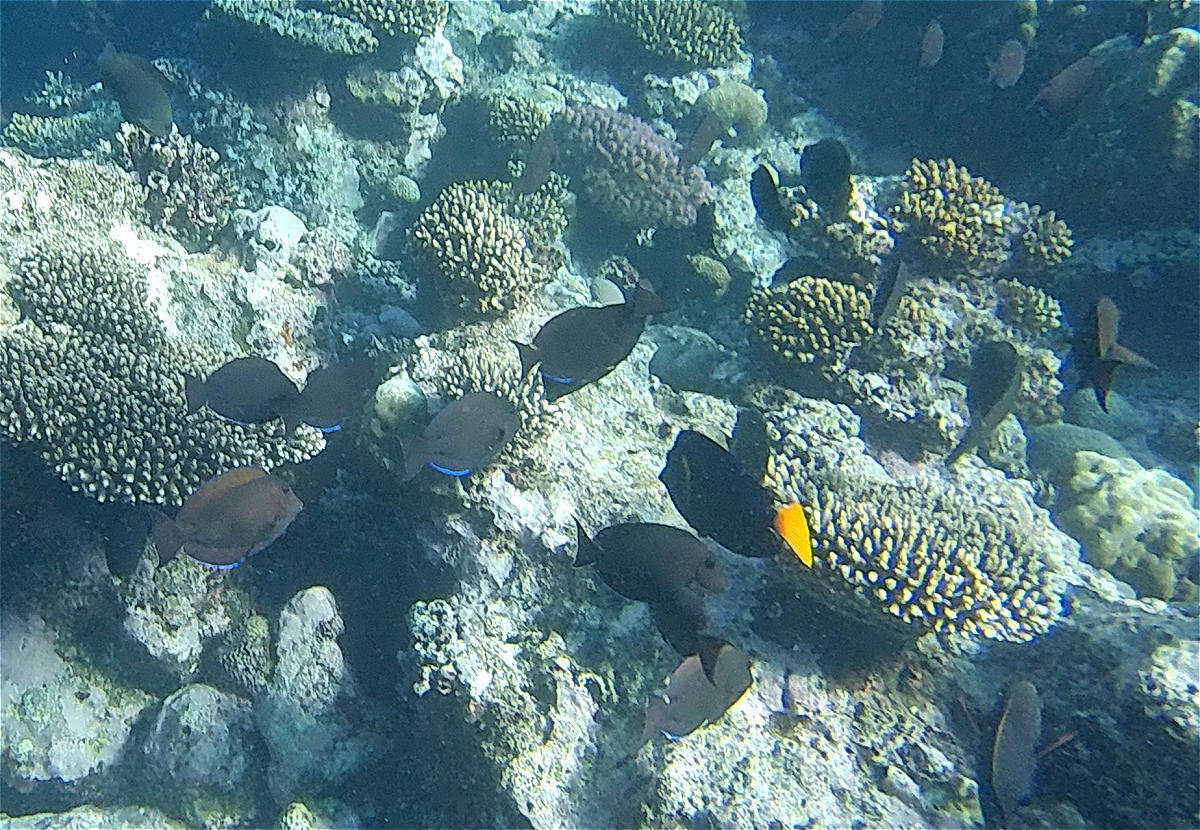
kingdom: Animalia
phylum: Chordata
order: Perciformes
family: Acanthuridae
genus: Acanthurus
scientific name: Acanthurus nigrofuscus
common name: Blackspot surgeonfish
